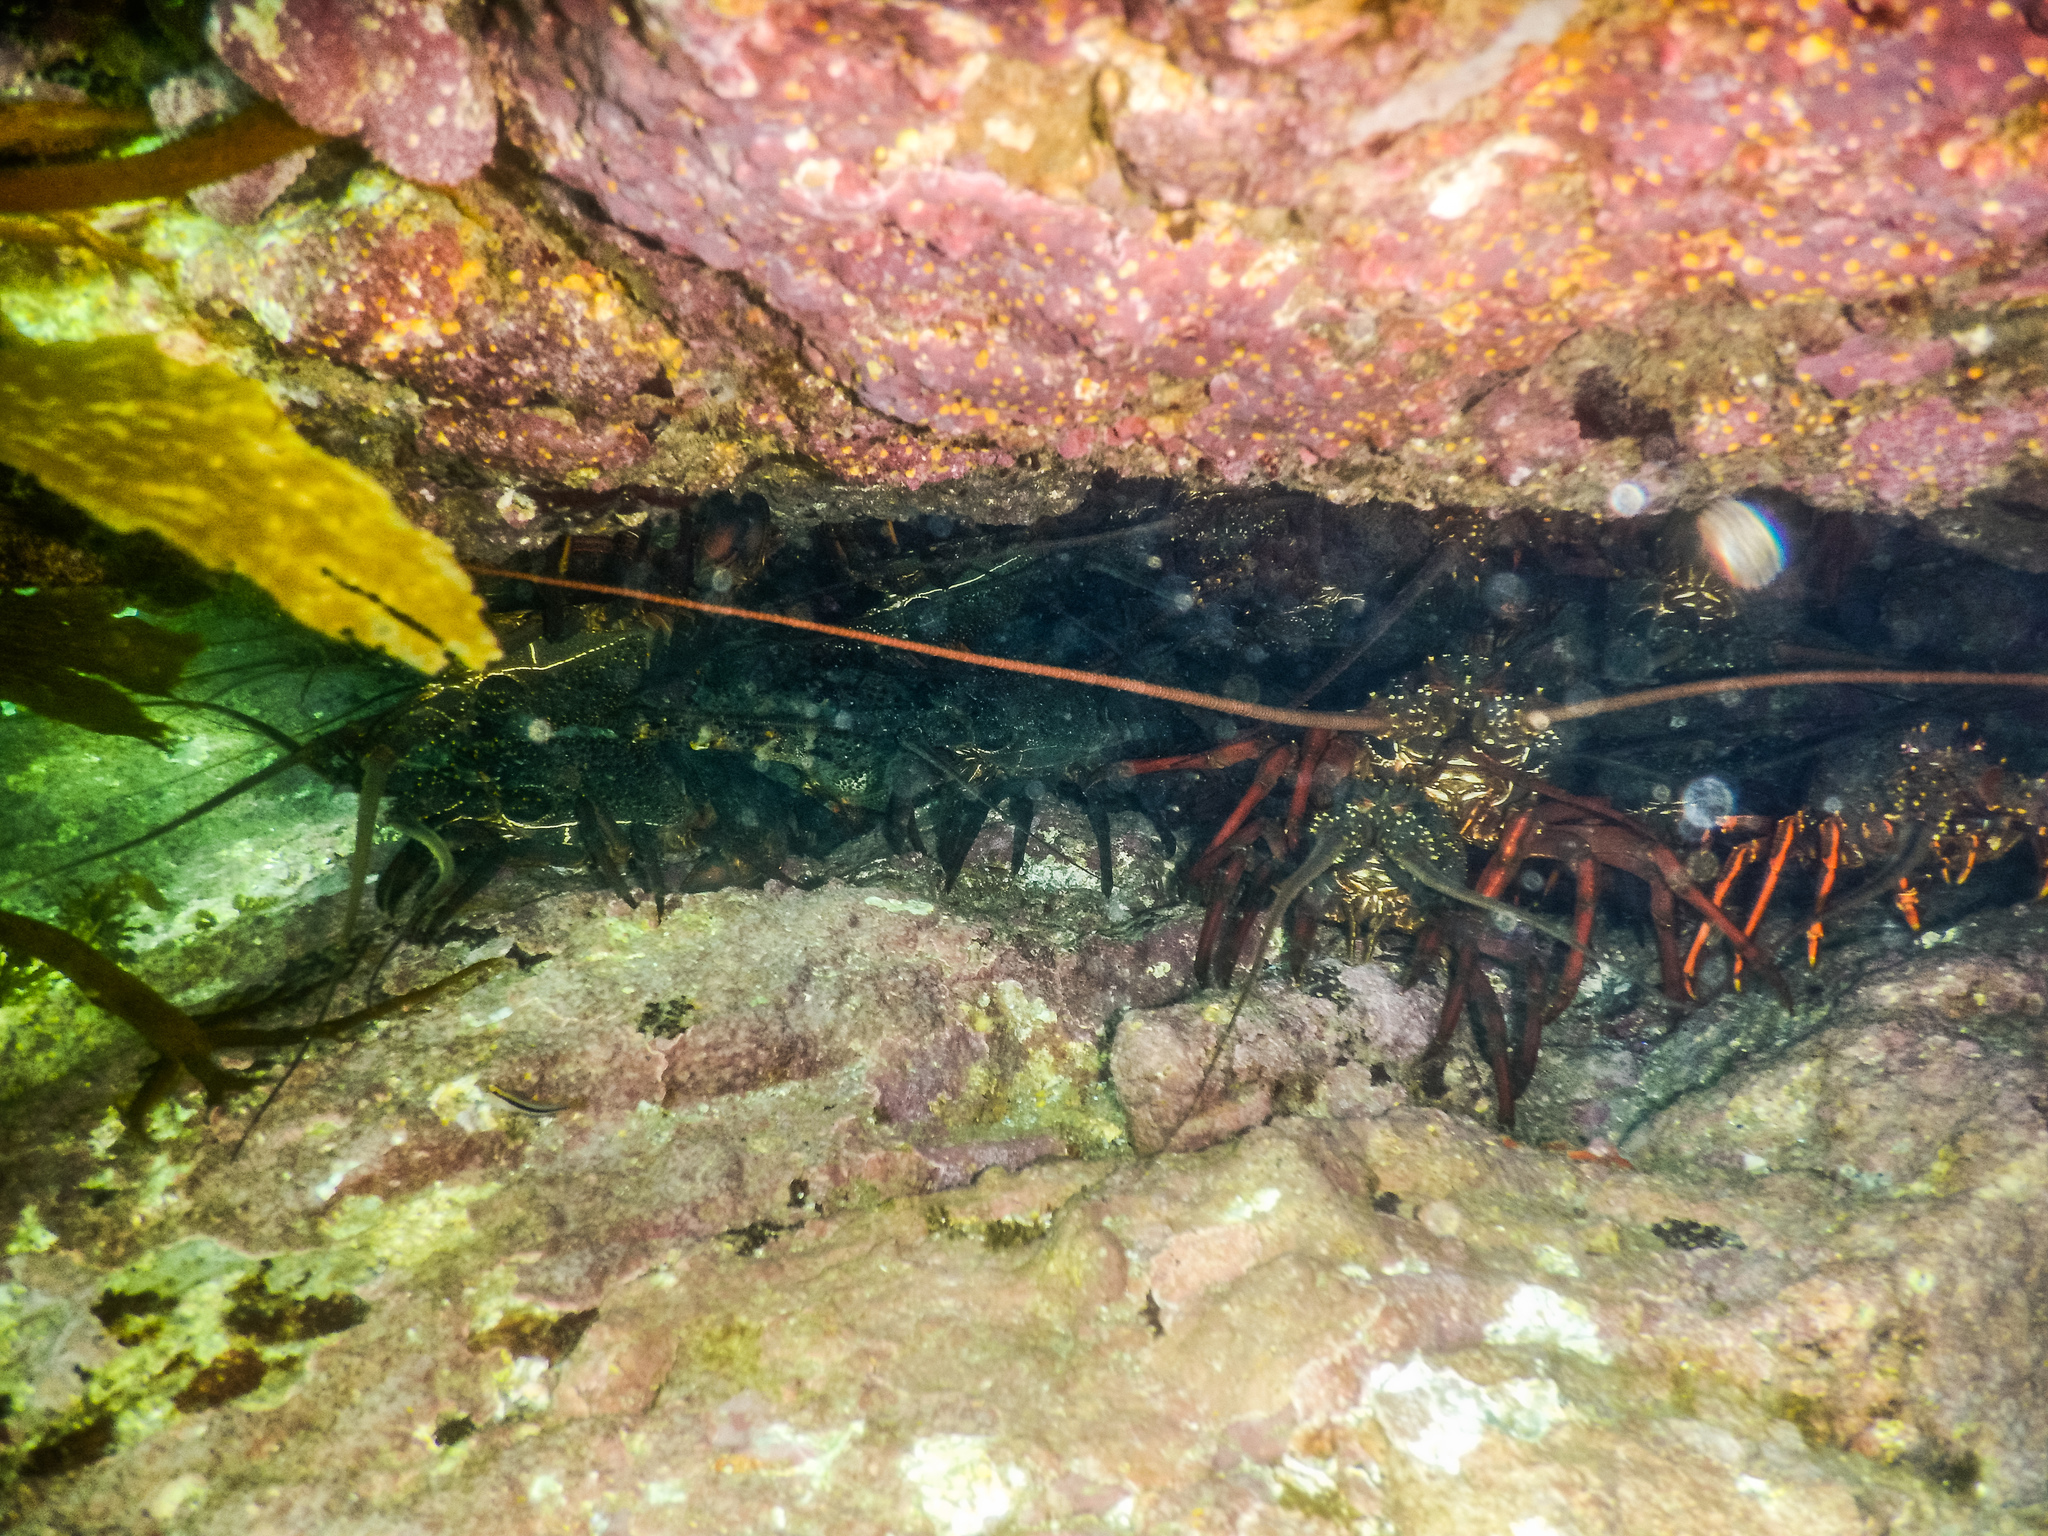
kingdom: Animalia
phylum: Arthropoda
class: Malacostraca
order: Decapoda
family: Palinuridae
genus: Sagmariasus
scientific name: Sagmariasus verreauxi
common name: Green rock lobster
